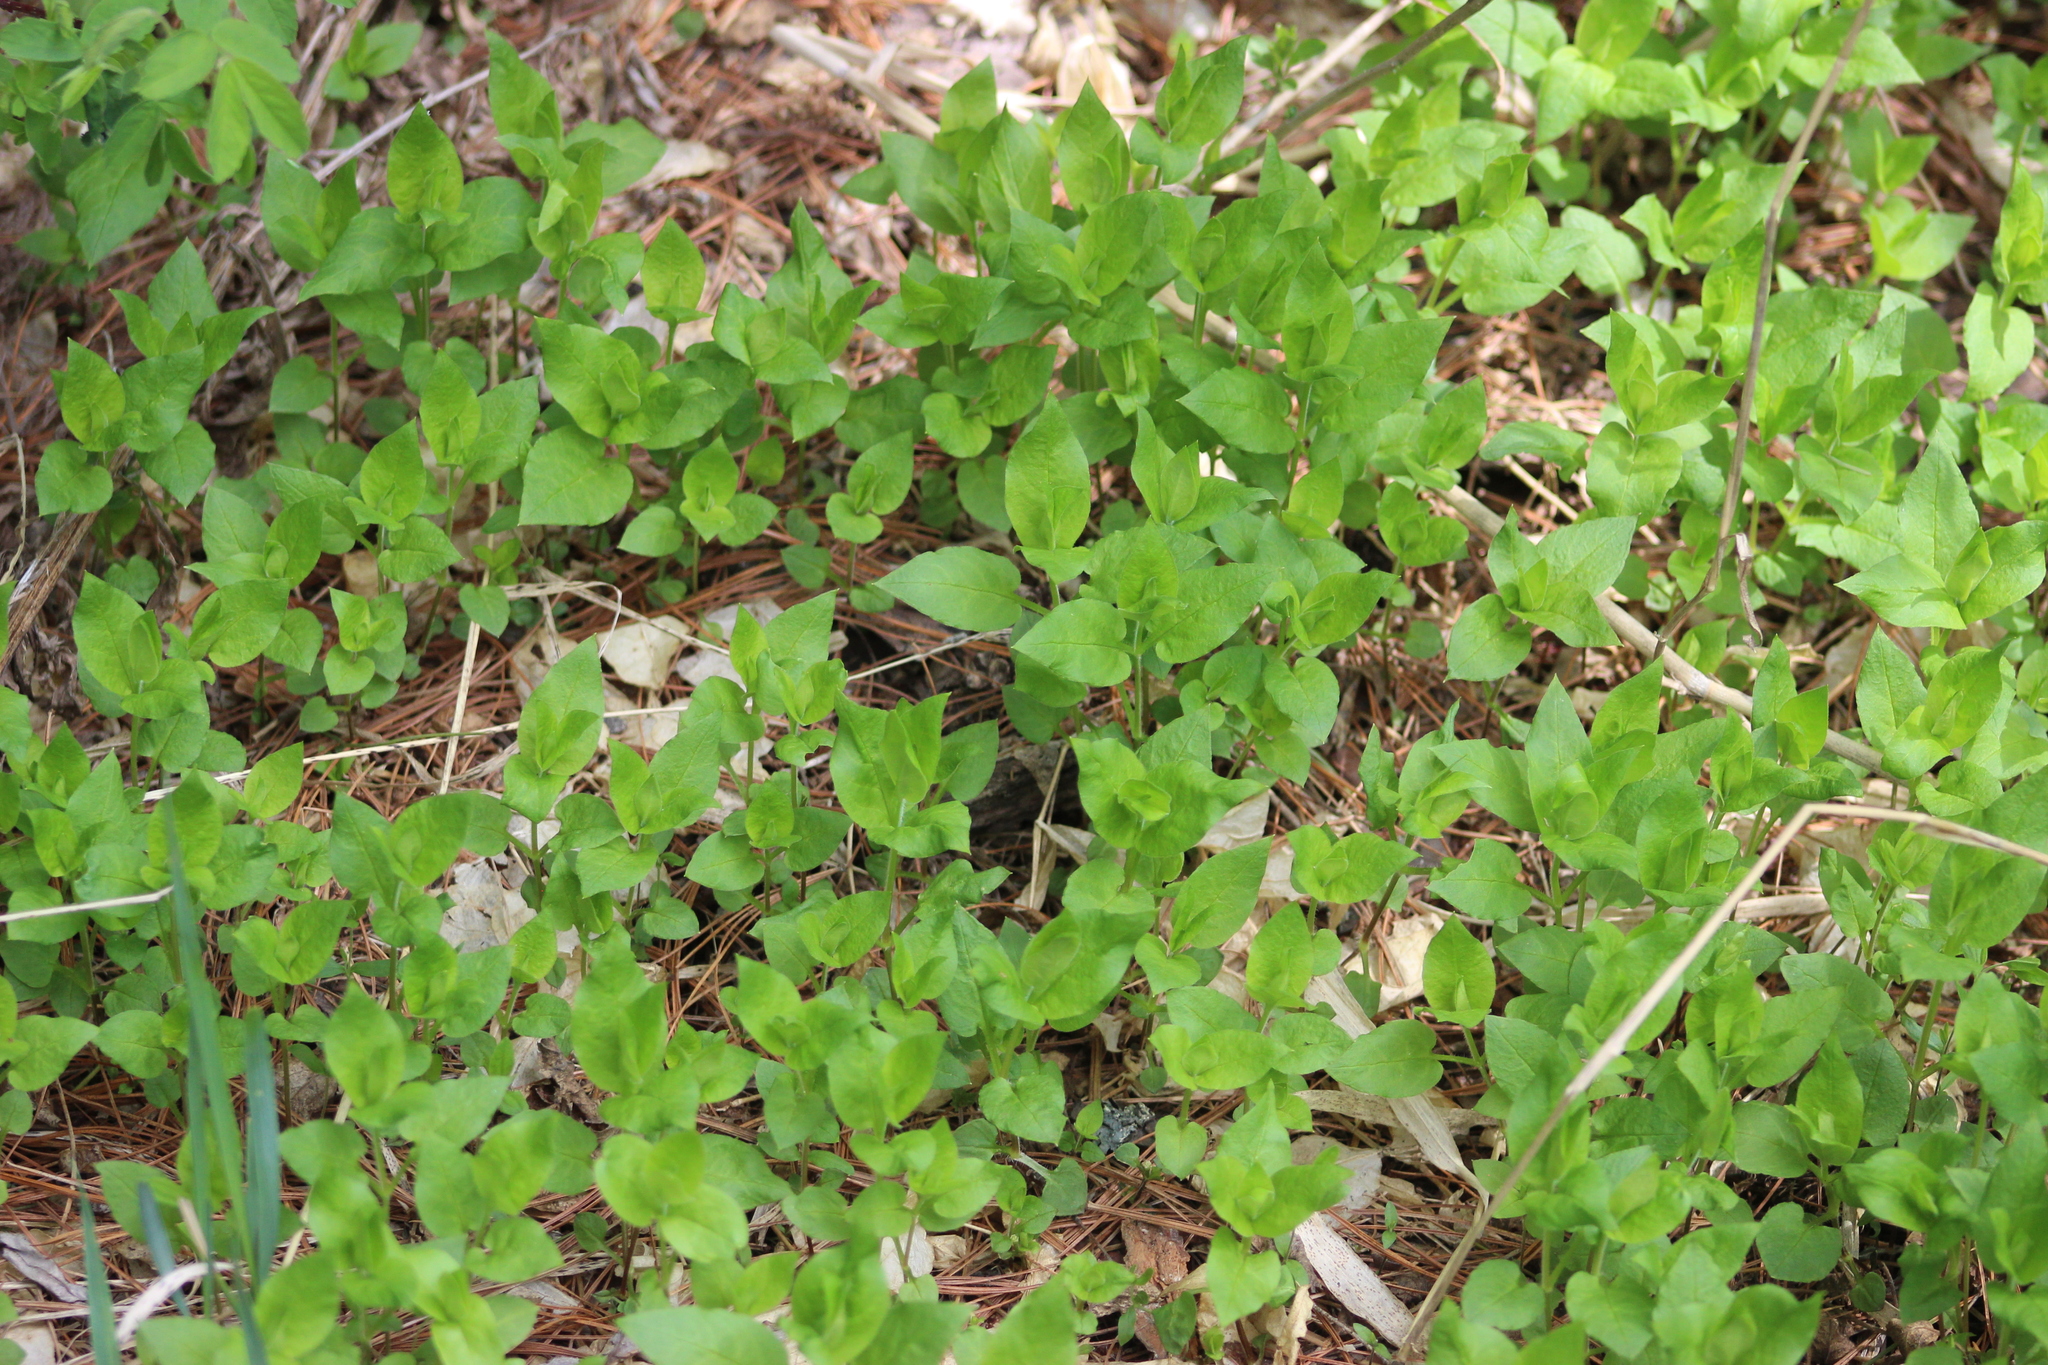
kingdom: Plantae
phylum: Tracheophyta
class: Magnoliopsida
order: Caryophyllales
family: Caryophyllaceae
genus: Stellaria
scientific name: Stellaria bungeana
